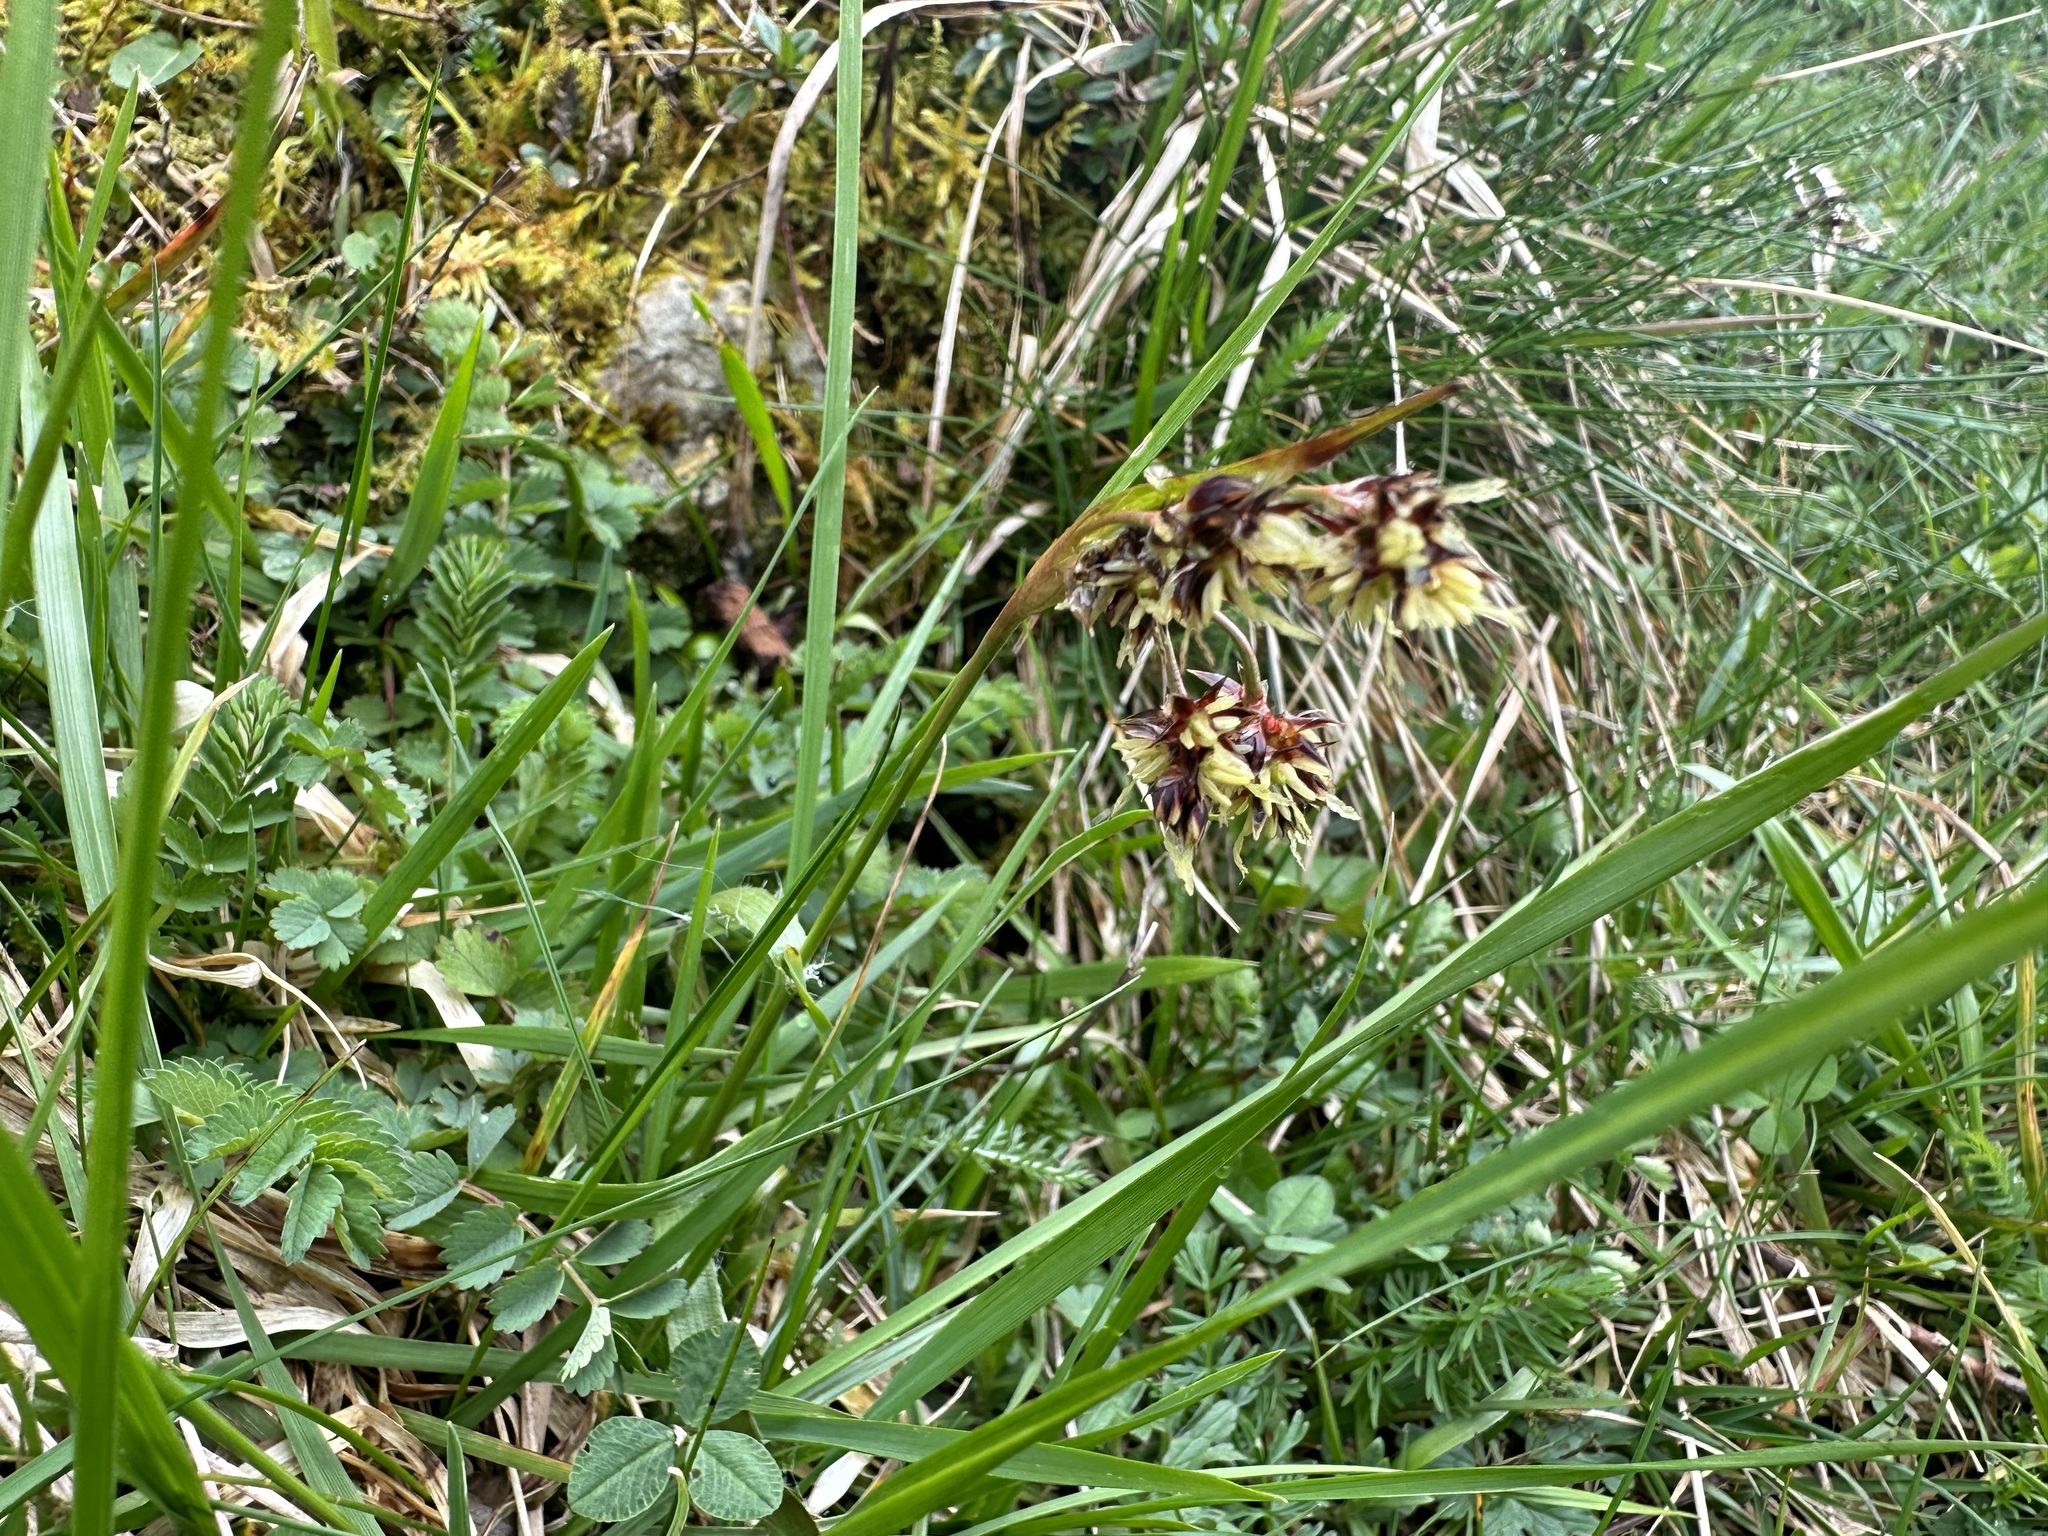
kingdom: Plantae
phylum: Tracheophyta
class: Liliopsida
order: Poales
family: Juncaceae
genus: Luzula
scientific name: Luzula campestris
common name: Field wood-rush
